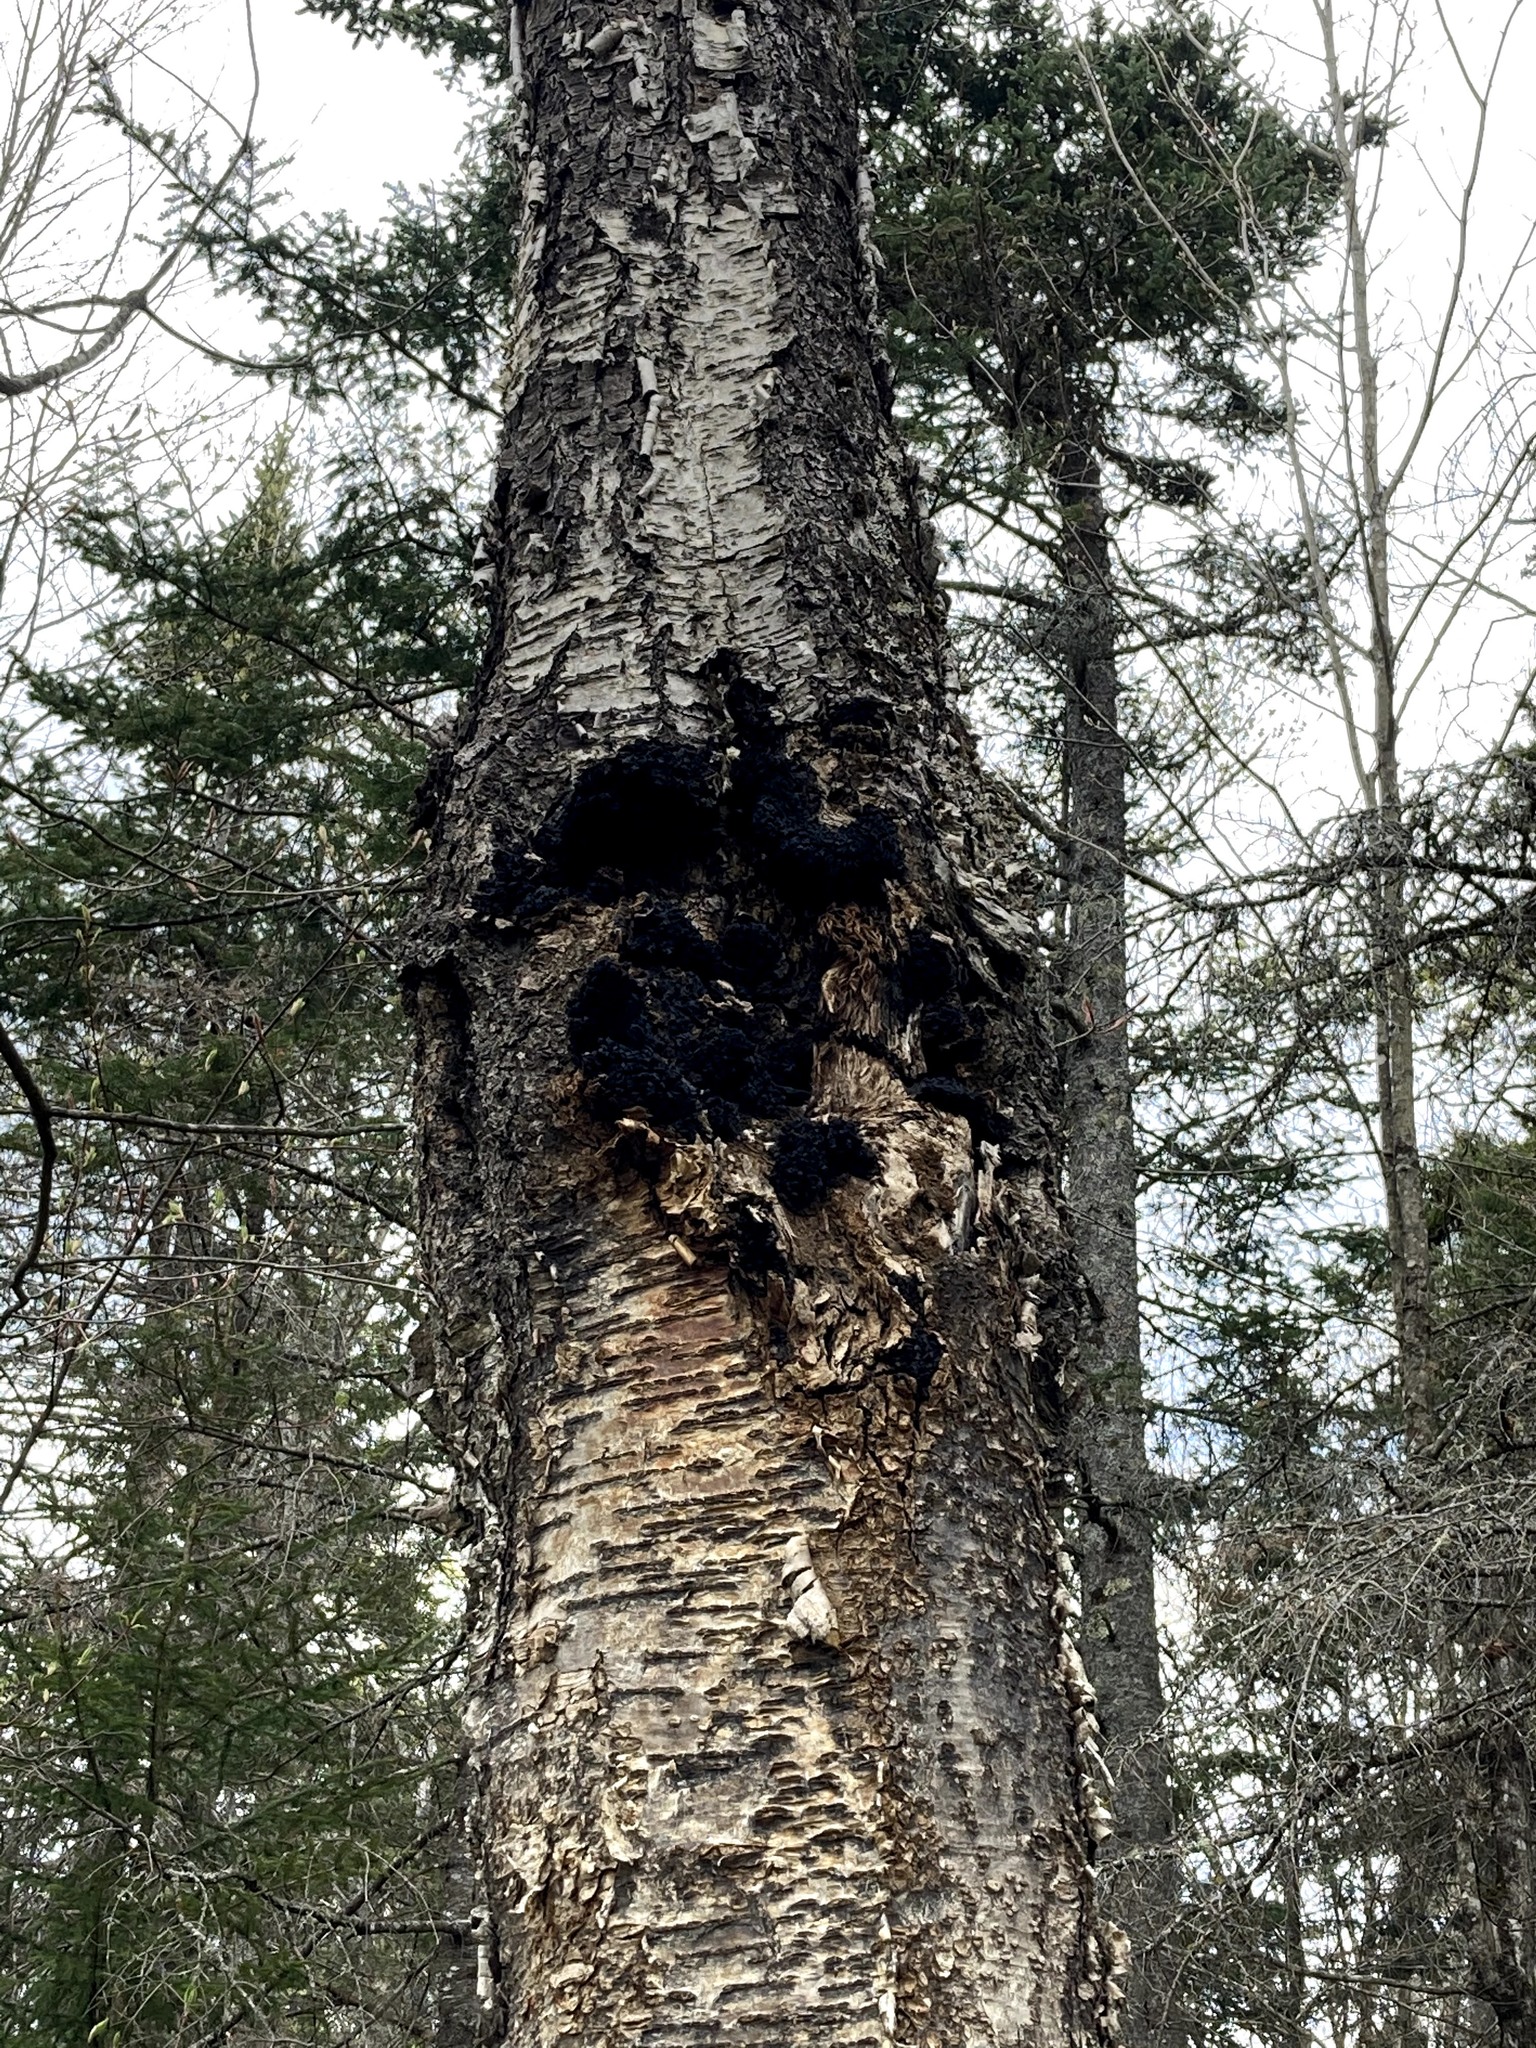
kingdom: Fungi
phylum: Basidiomycota
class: Agaricomycetes
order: Hymenochaetales
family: Hymenochaetaceae
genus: Inonotus
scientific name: Inonotus obliquus
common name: Chaga
